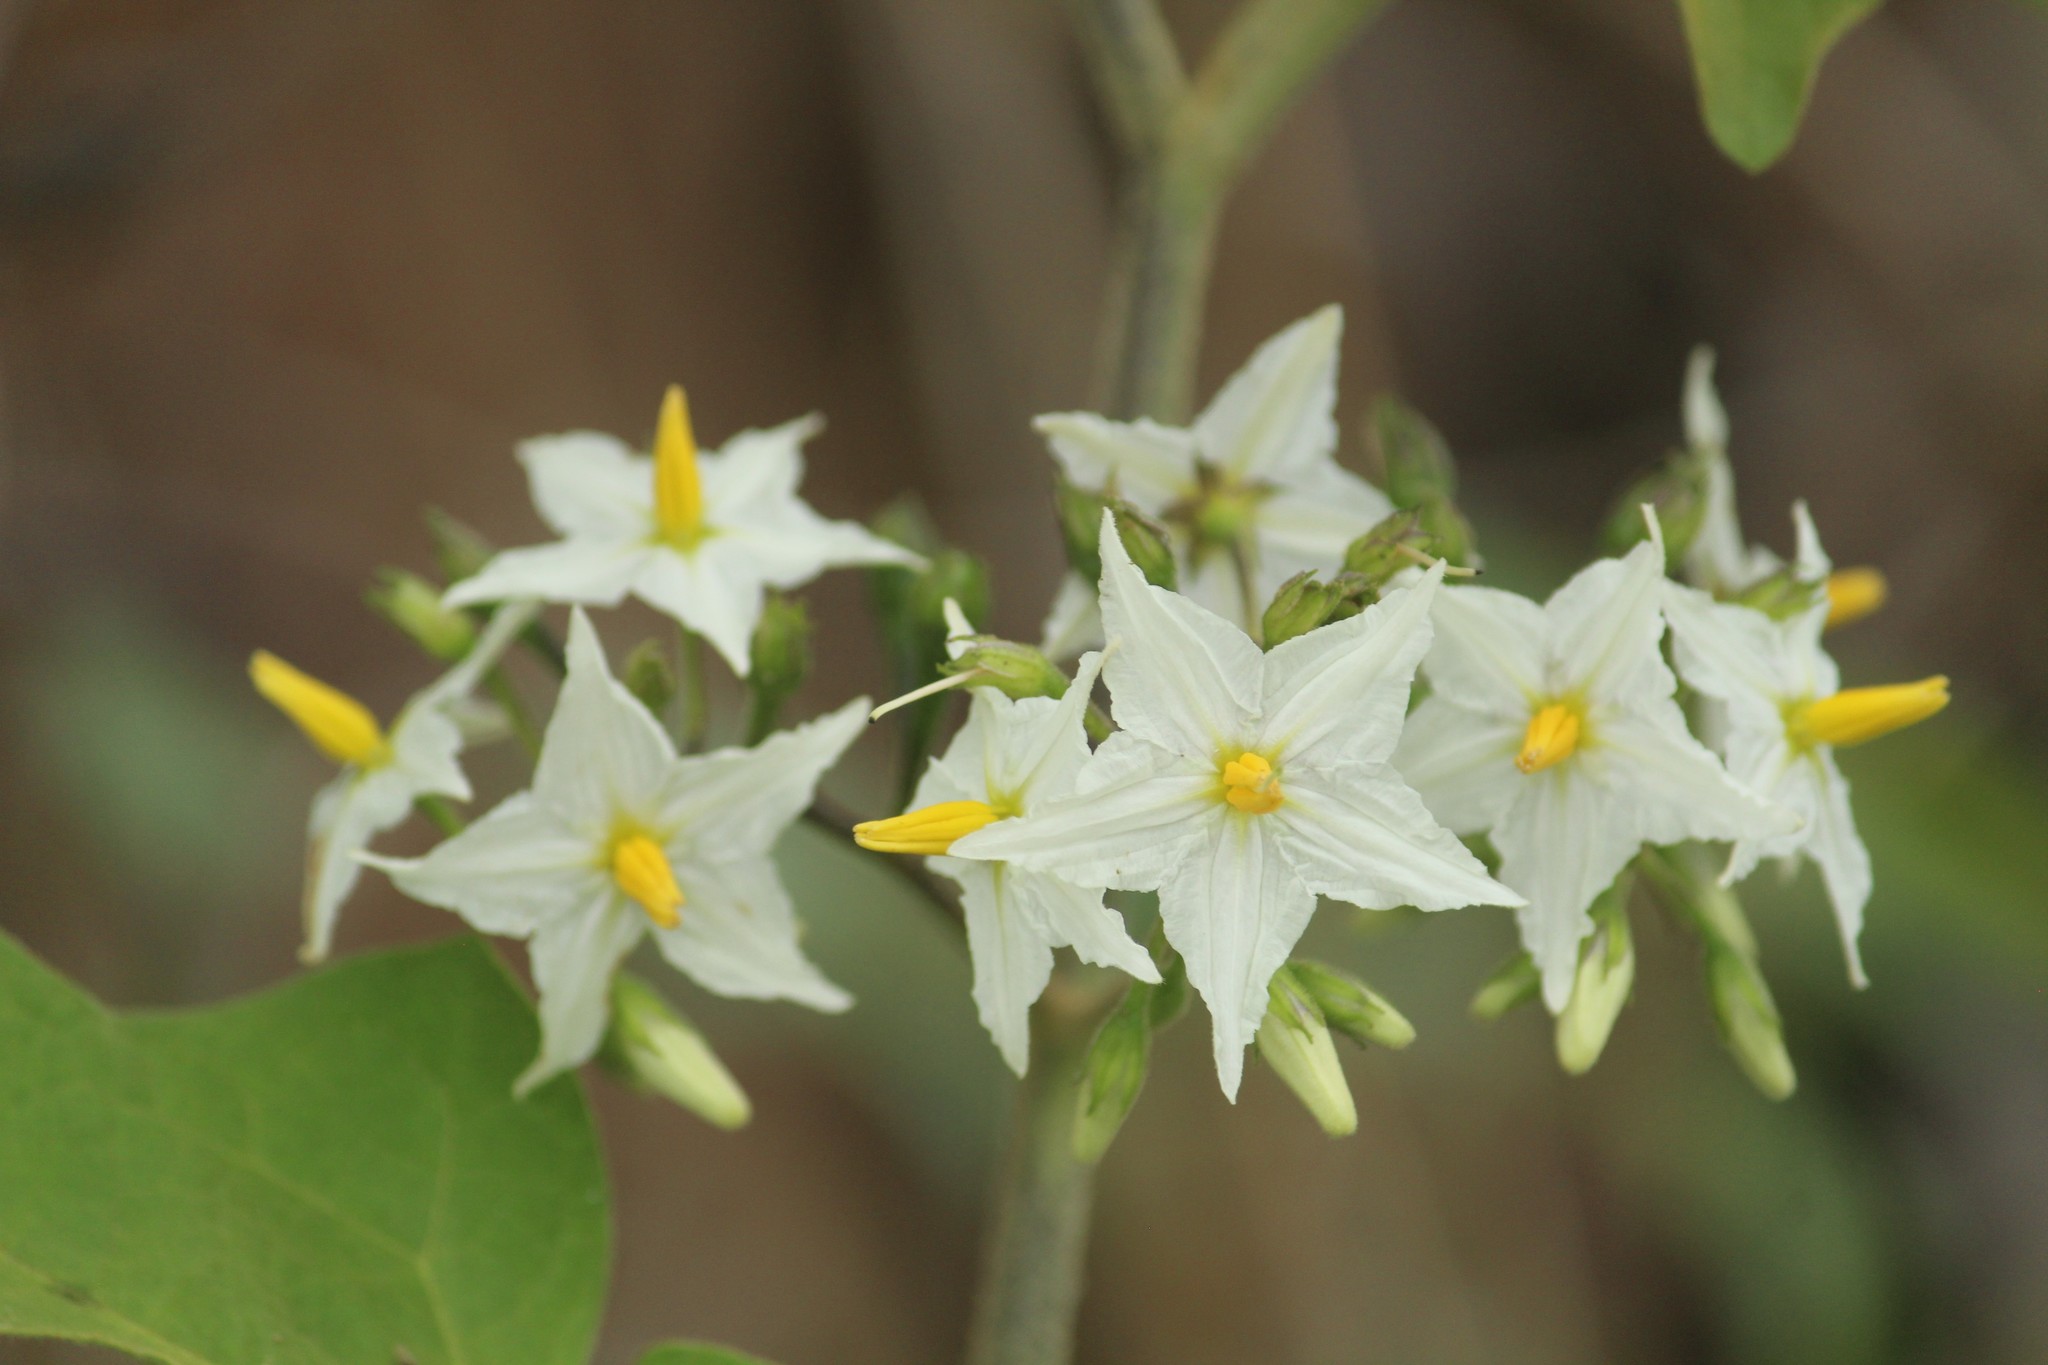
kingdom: Plantae
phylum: Tracheophyta
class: Magnoliopsida
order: Solanales
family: Solanaceae
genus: Solanum
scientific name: Solanum torvum
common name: Turkey berry
